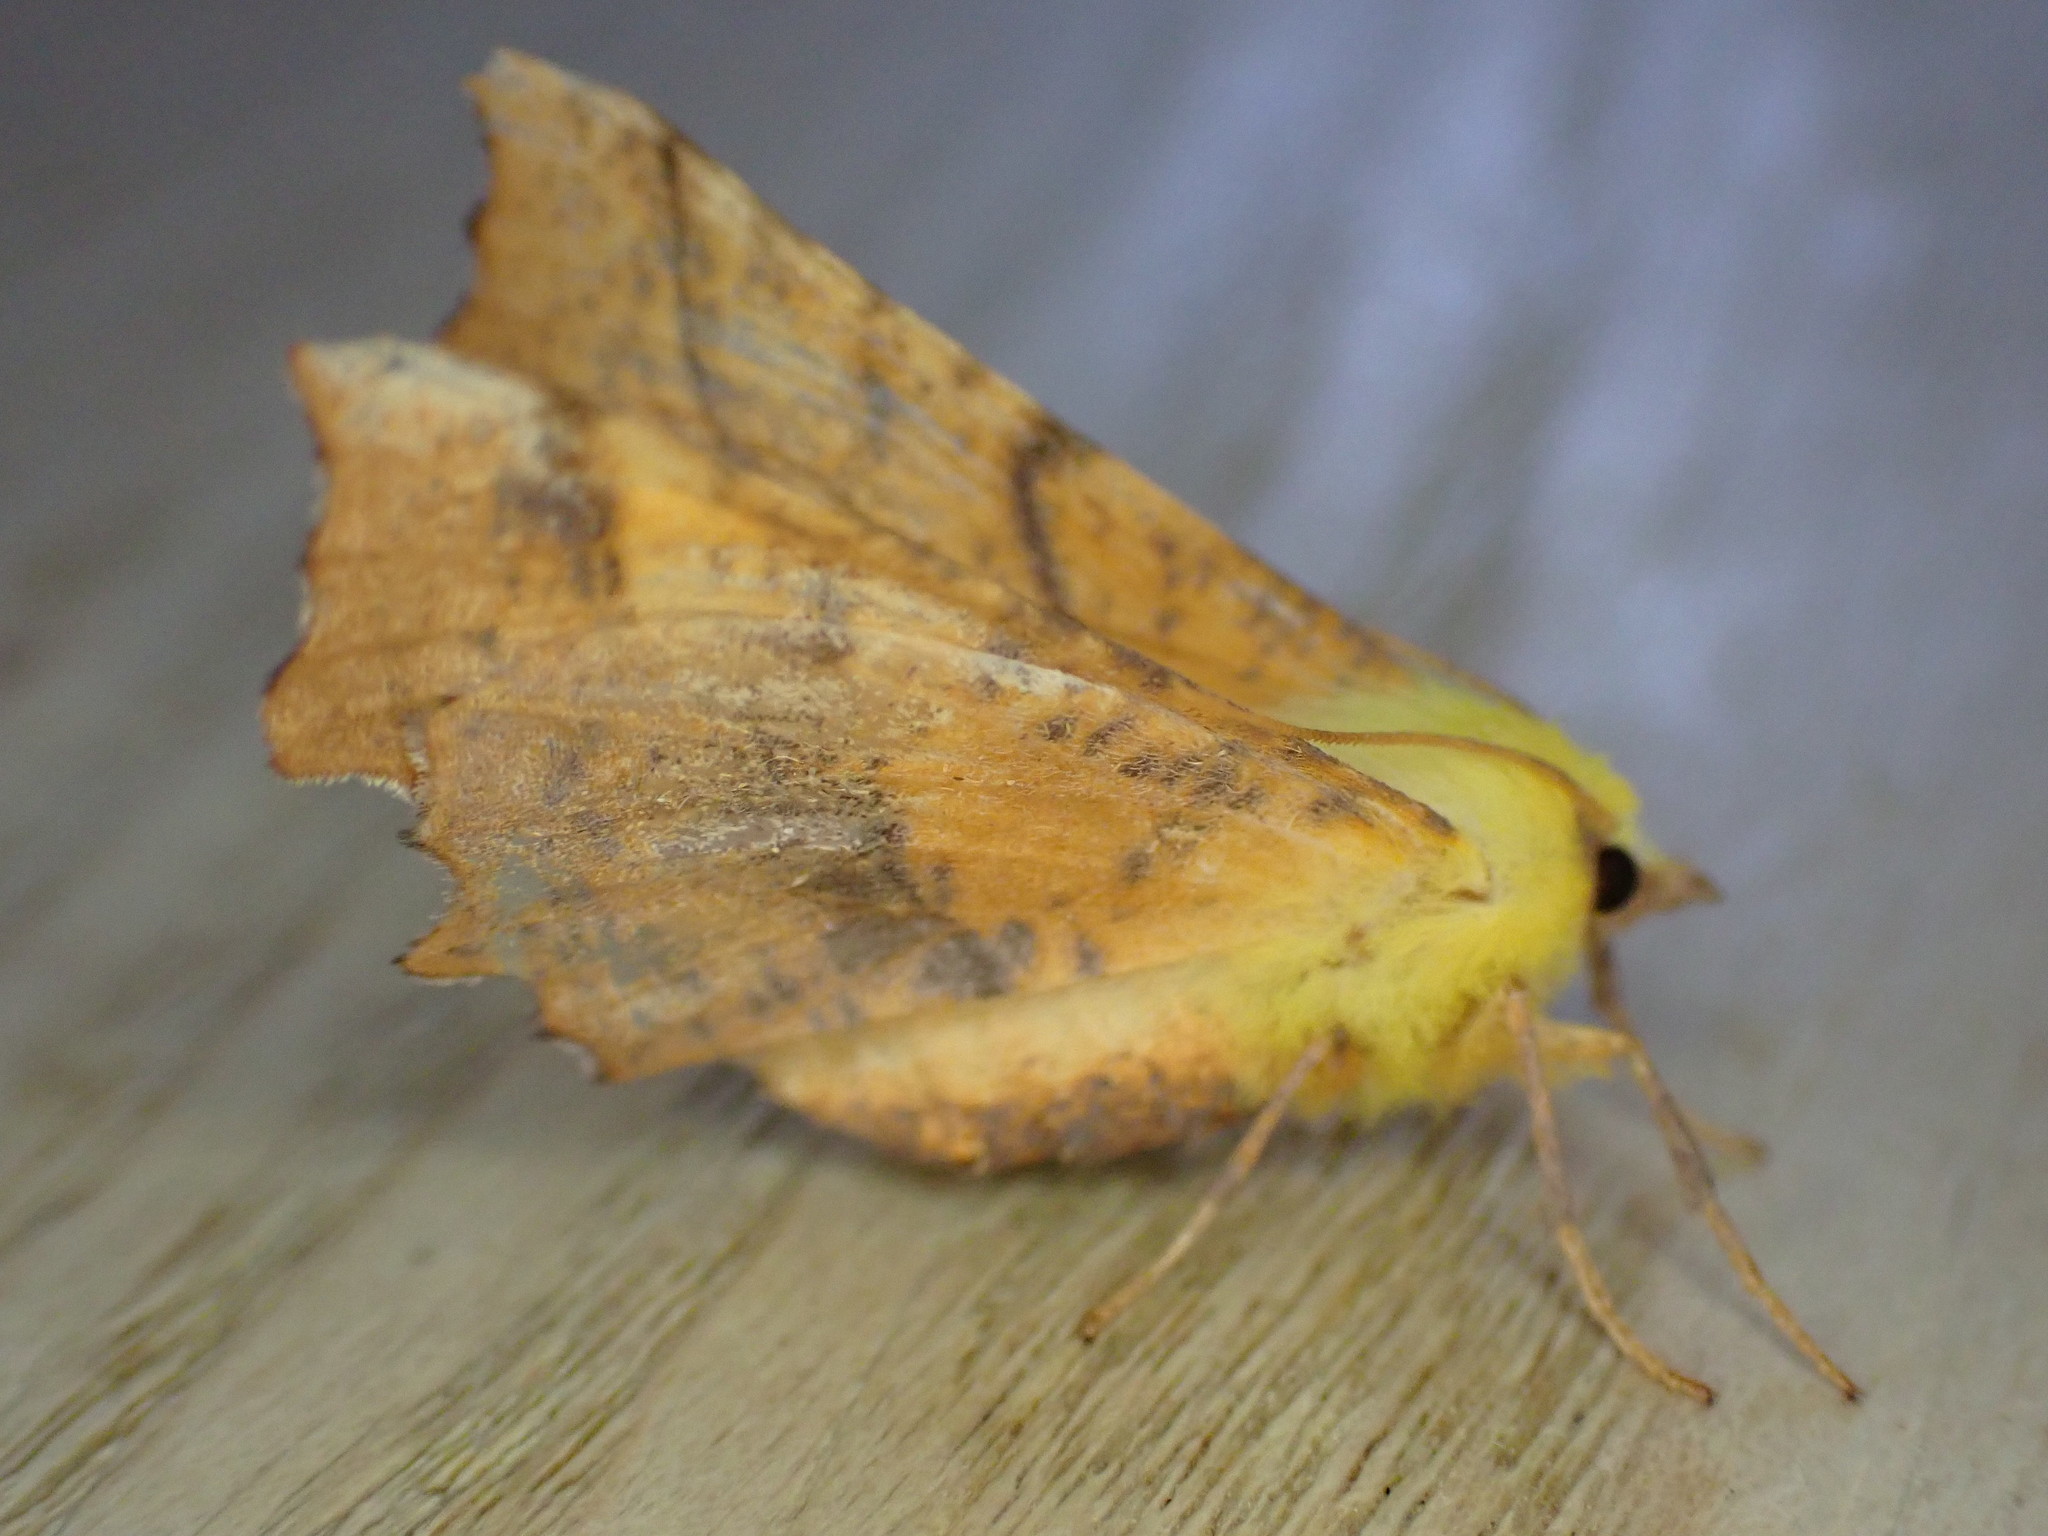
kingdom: Animalia
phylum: Arthropoda
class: Insecta
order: Lepidoptera
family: Geometridae
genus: Ennomos
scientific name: Ennomos alniaria
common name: Canary-shouldered thorn
